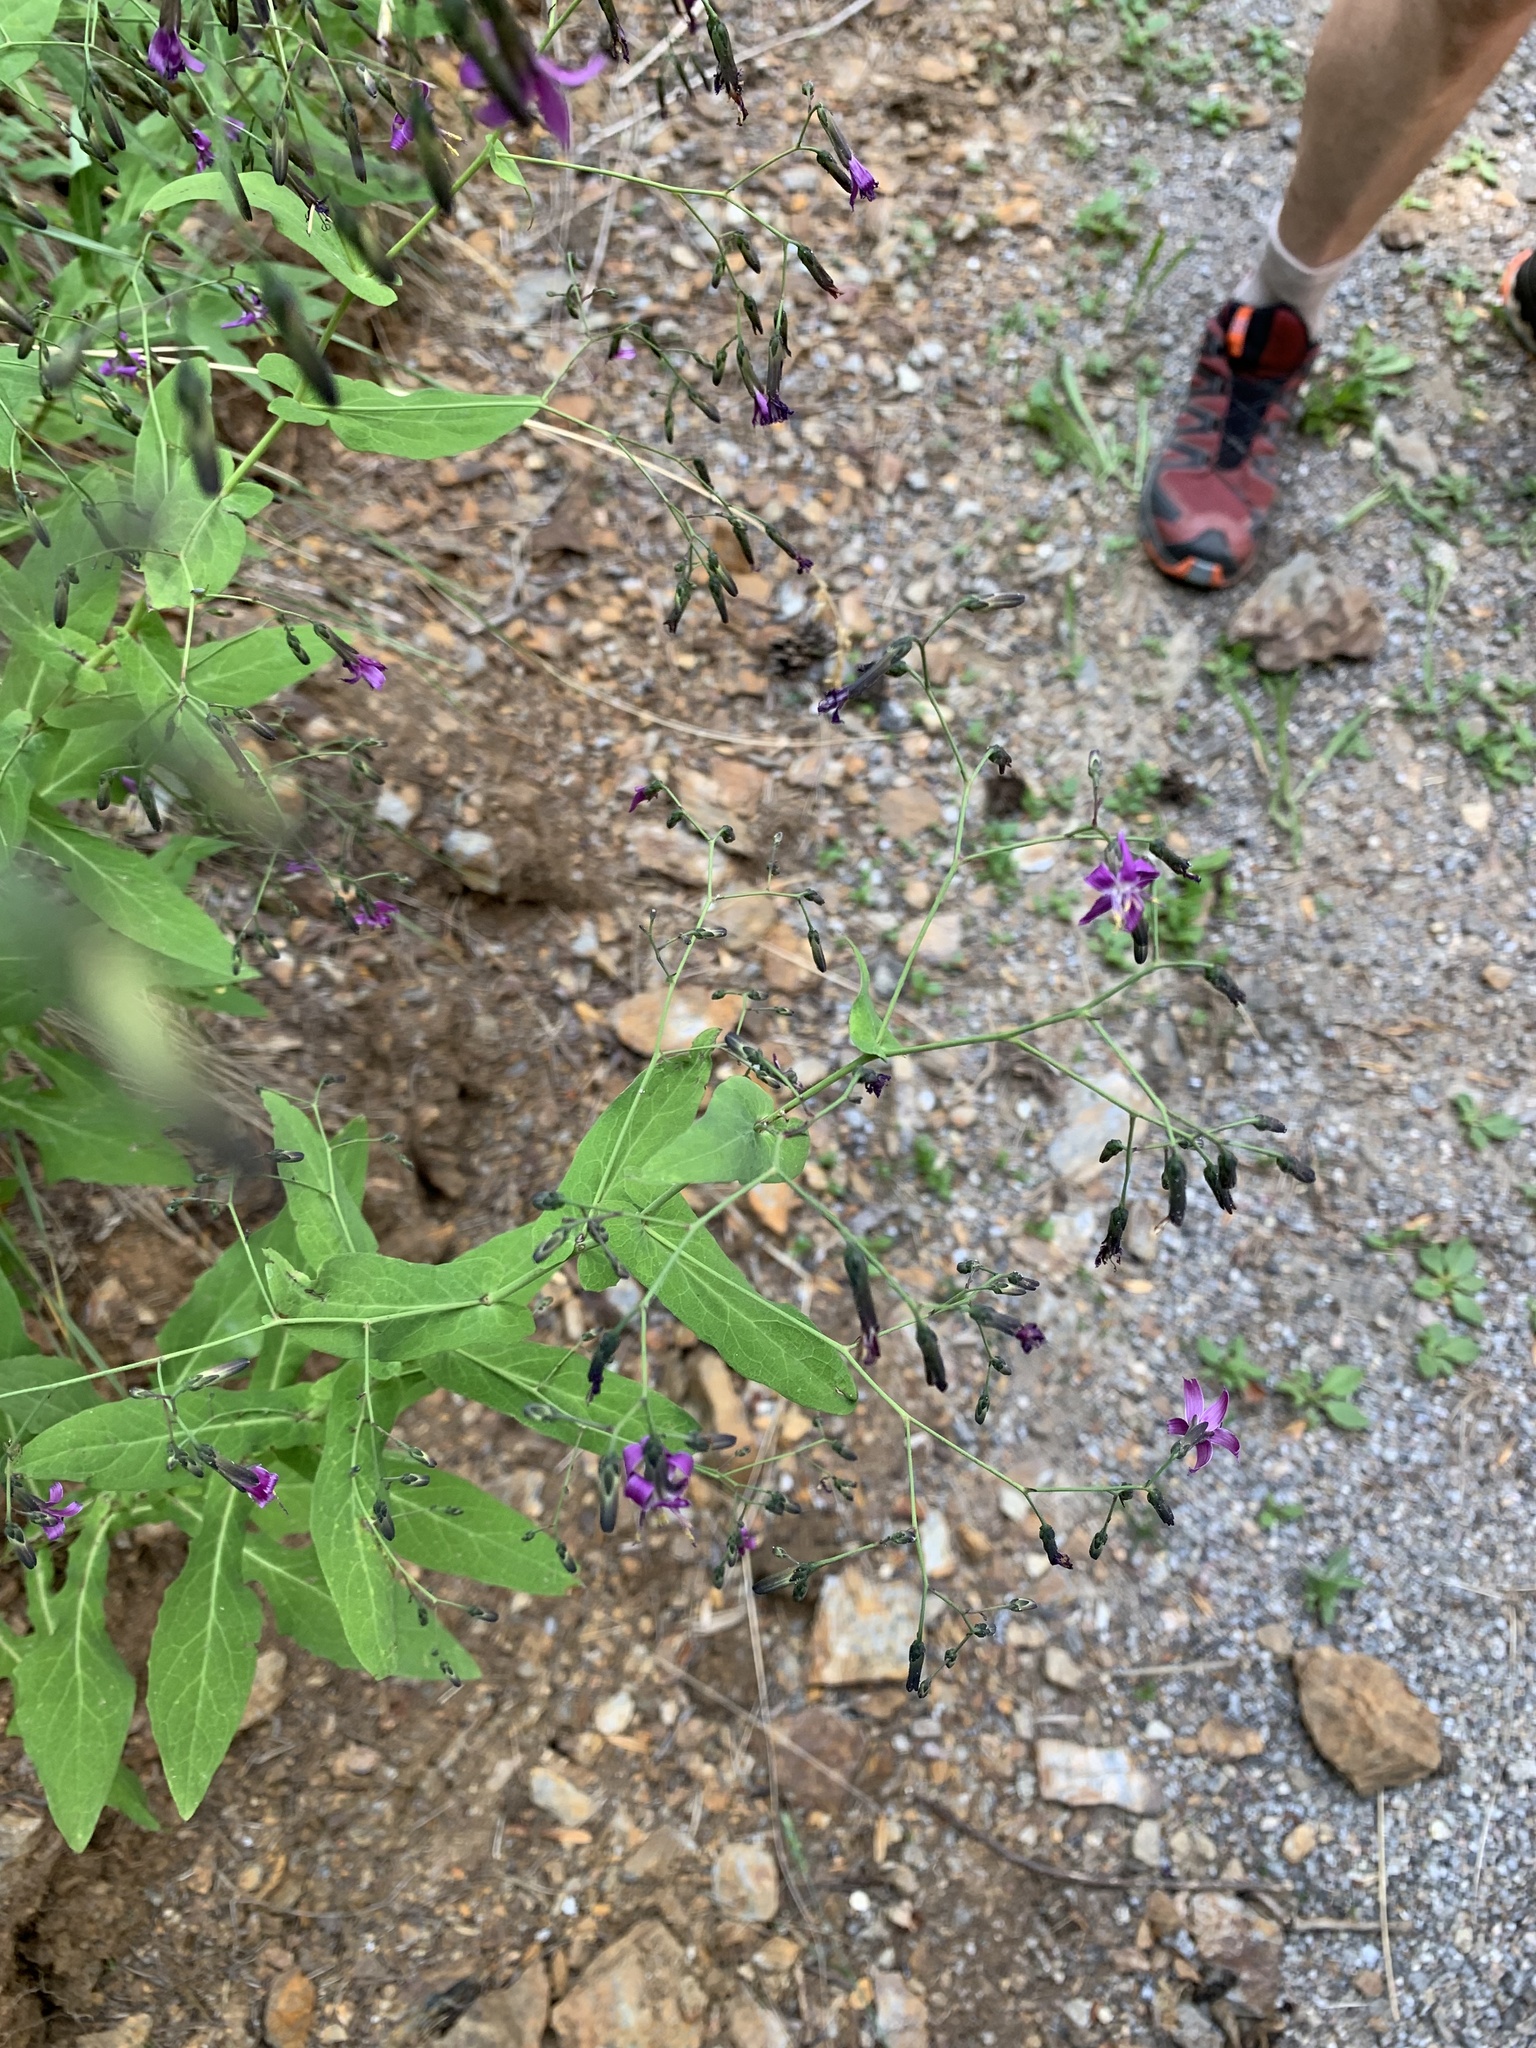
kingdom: Plantae
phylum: Tracheophyta
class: Magnoliopsida
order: Asterales
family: Asteraceae
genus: Prenanthes
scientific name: Prenanthes purpurea
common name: Purple lettuce
